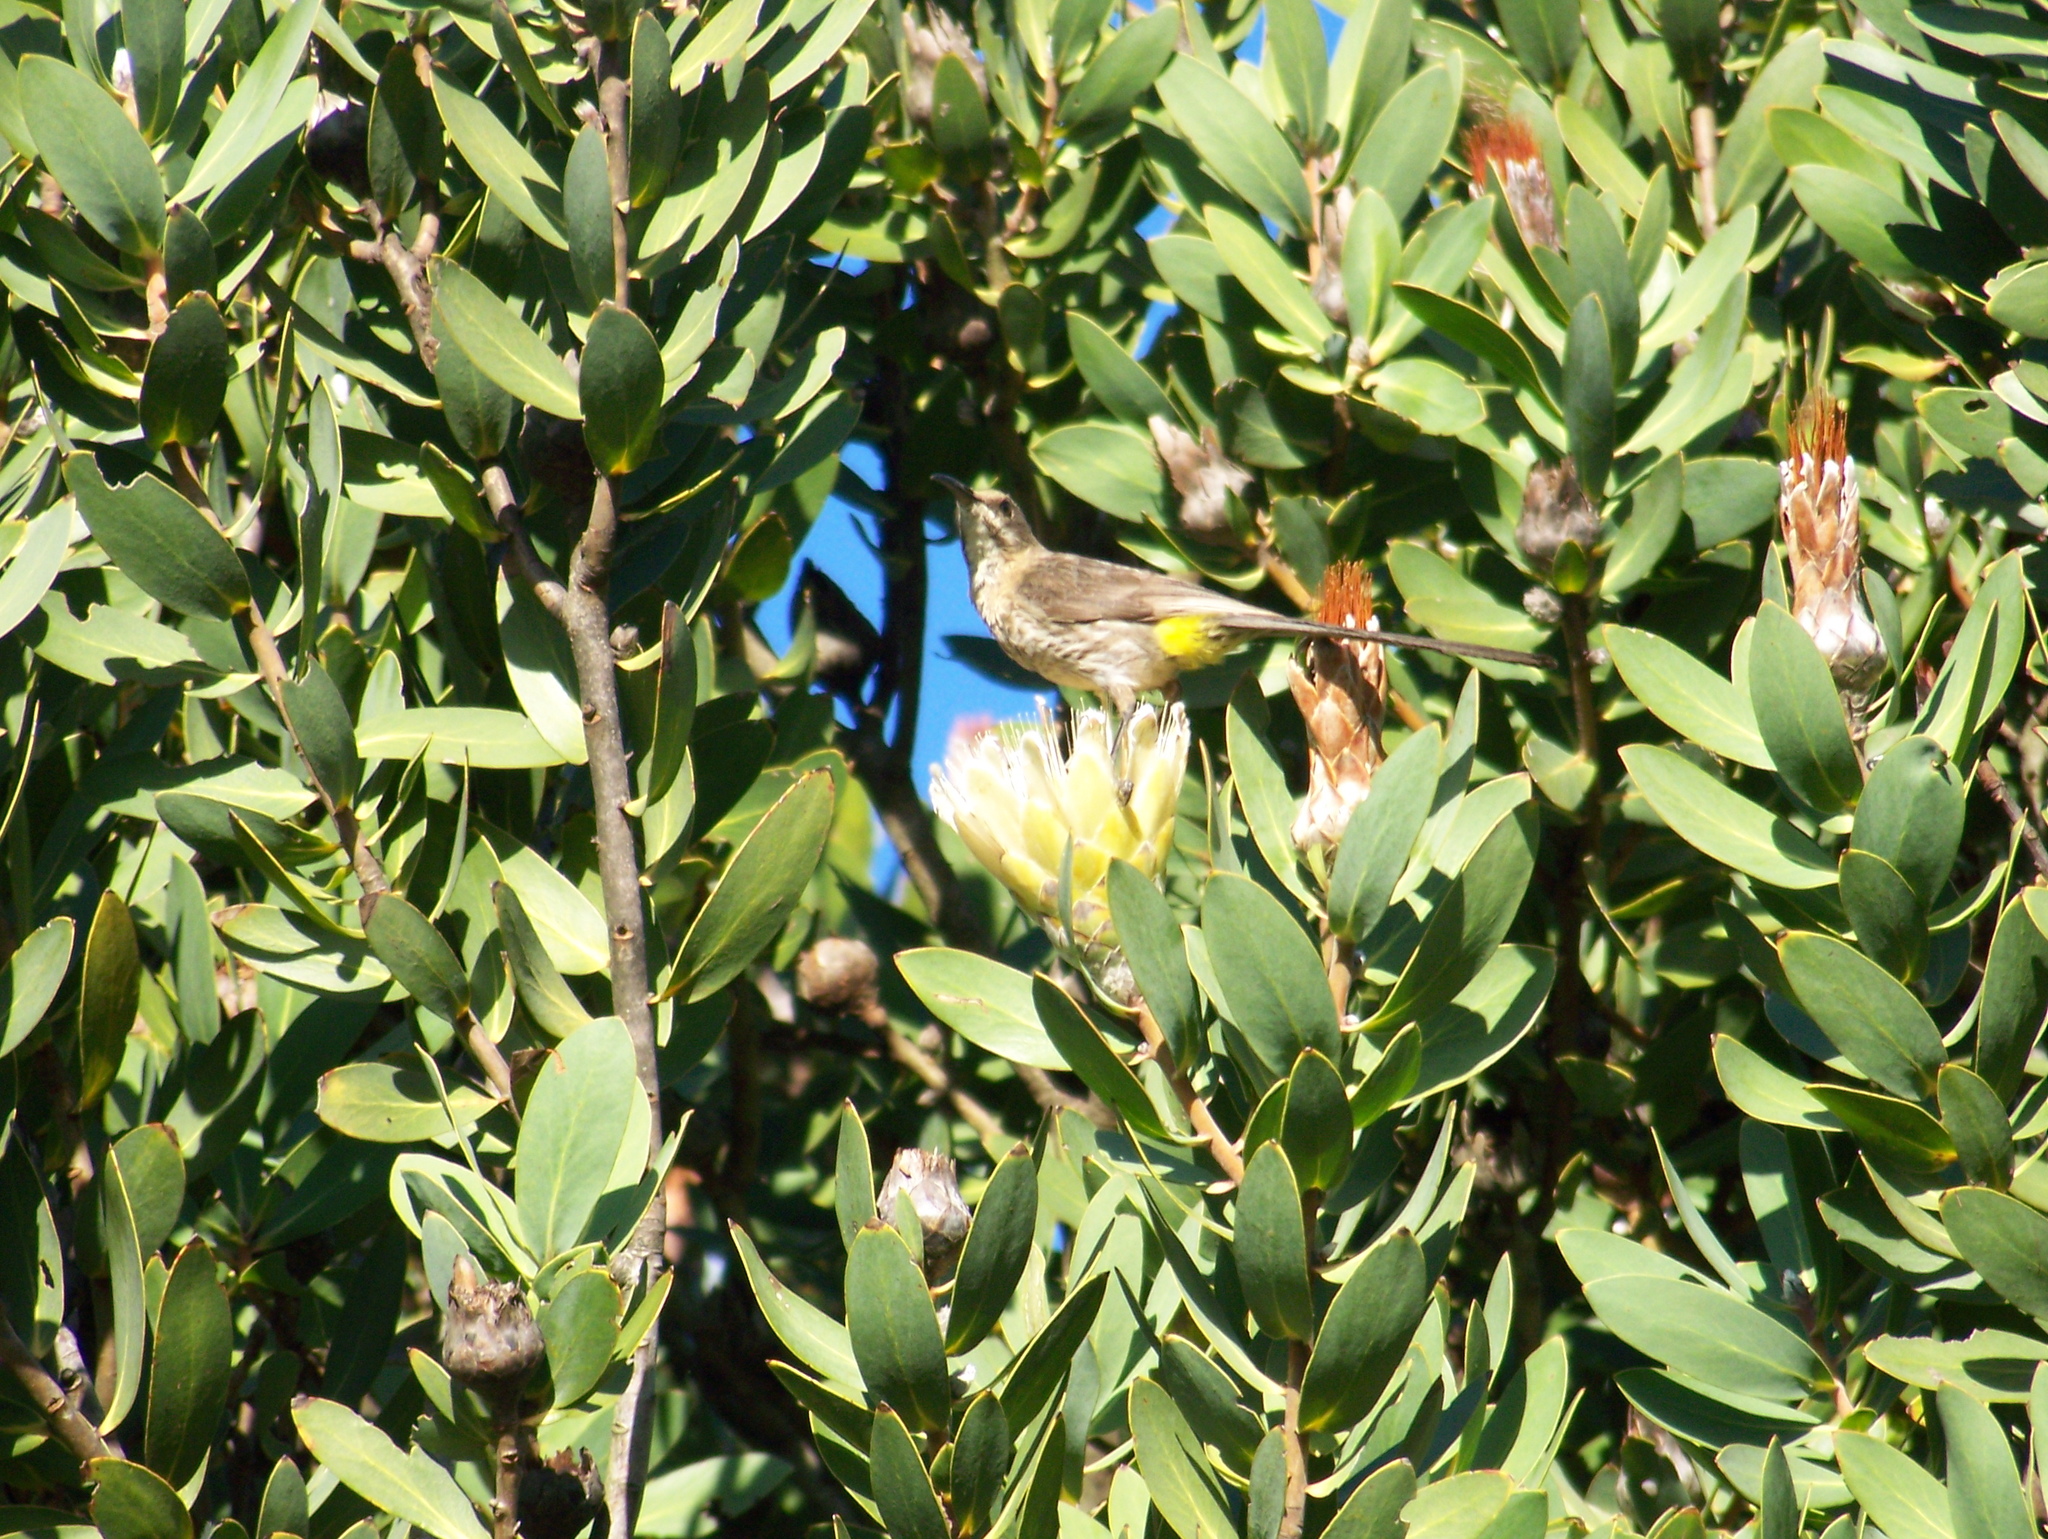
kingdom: Animalia
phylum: Chordata
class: Aves
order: Passeriformes
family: Promeropidae
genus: Promerops
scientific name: Promerops cafer
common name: Cape sugarbird
